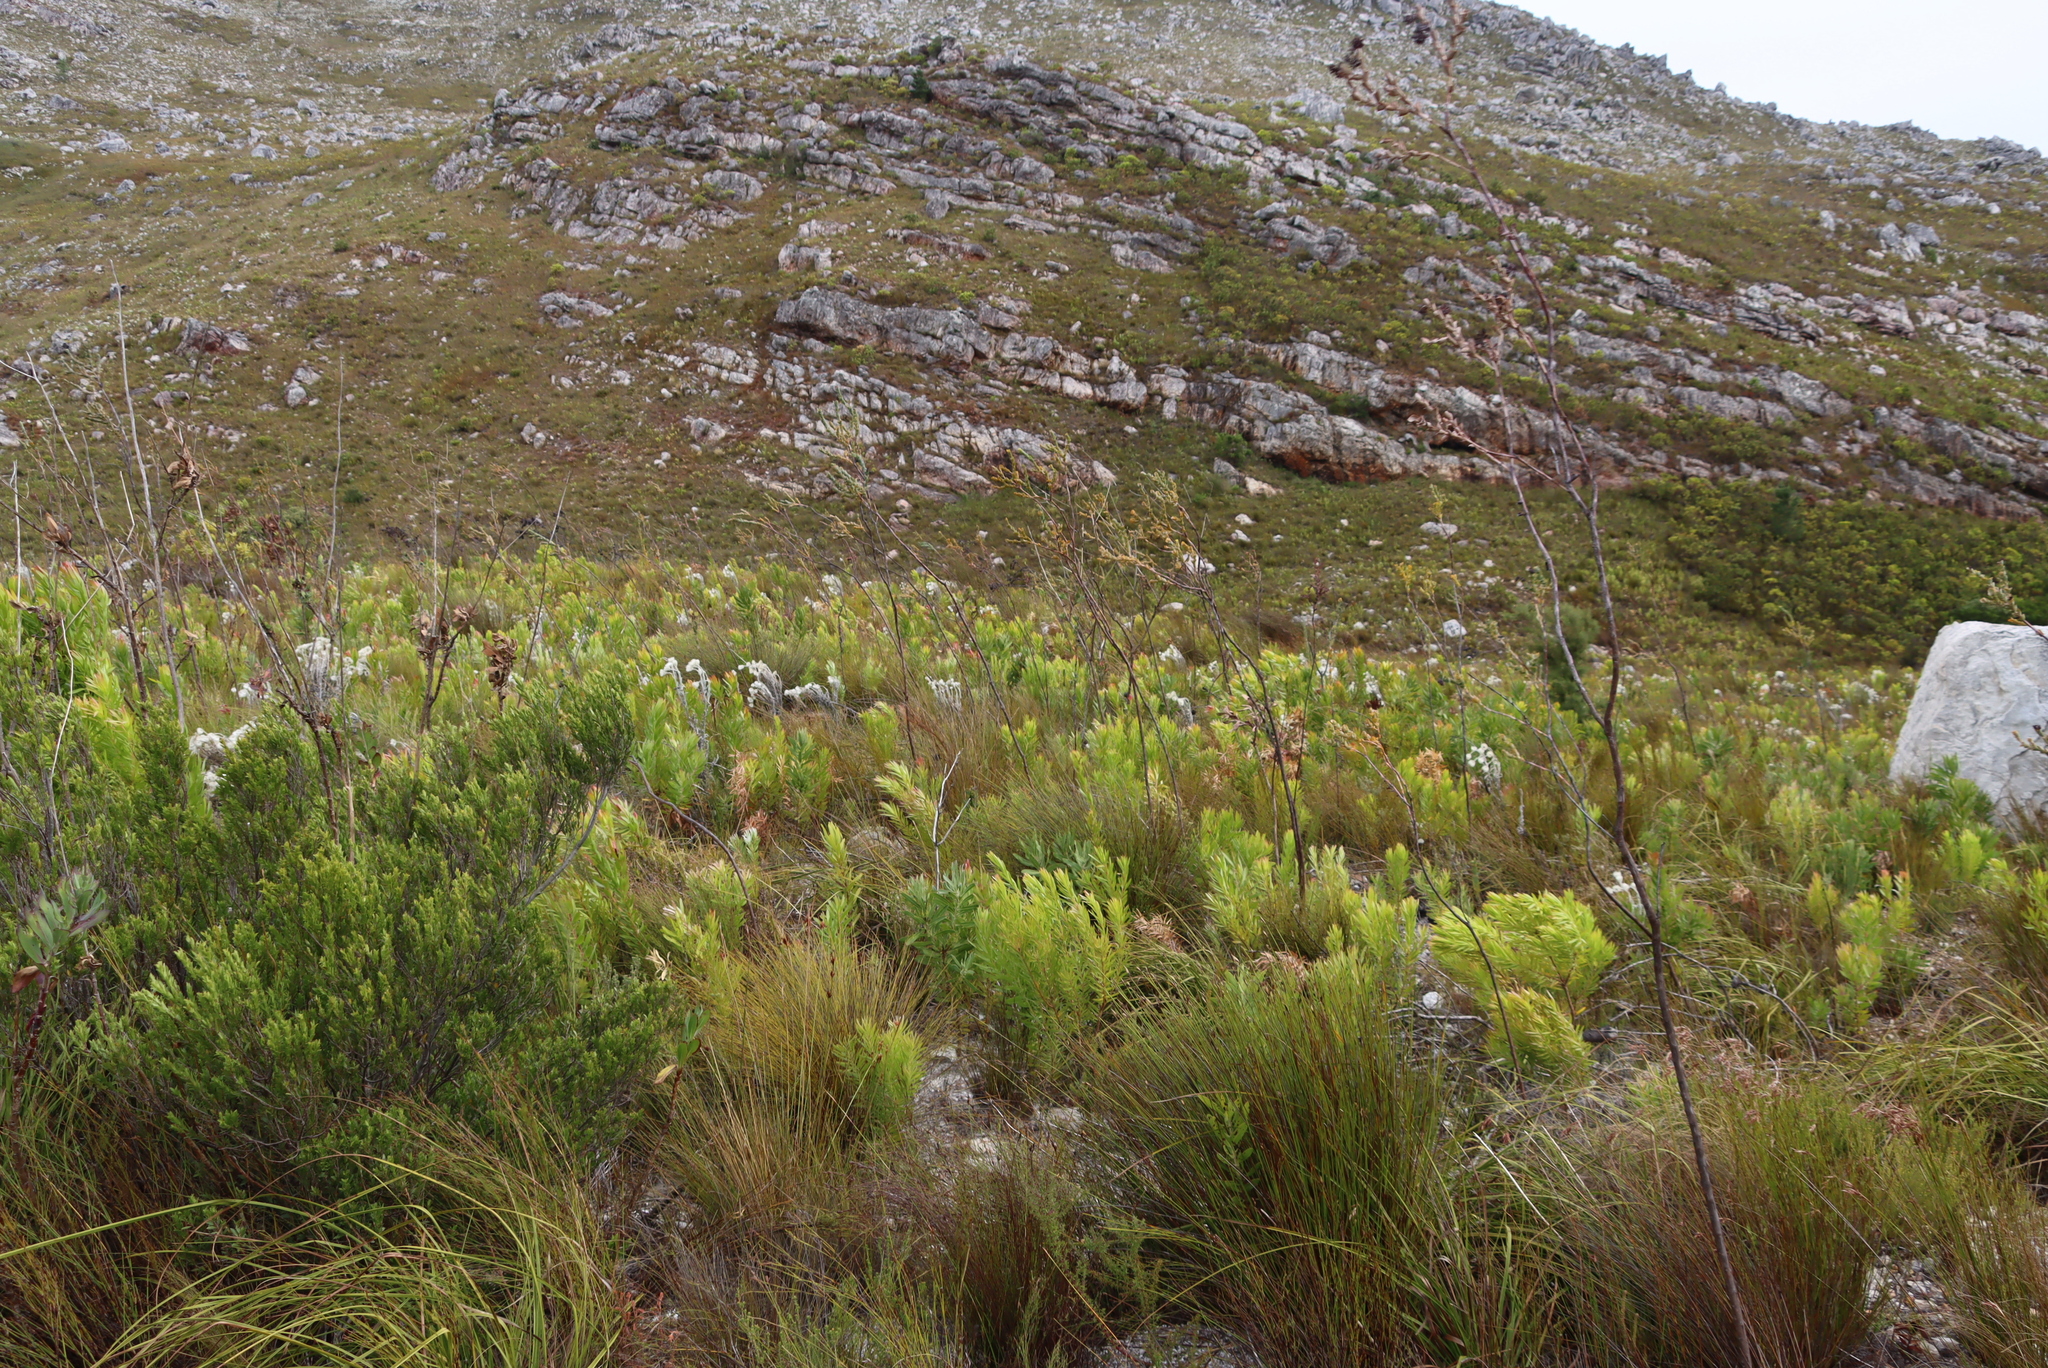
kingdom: Plantae
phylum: Tracheophyta
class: Magnoliopsida
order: Santalales
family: Thesiaceae
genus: Thesium
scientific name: Thesium euphorbioides
